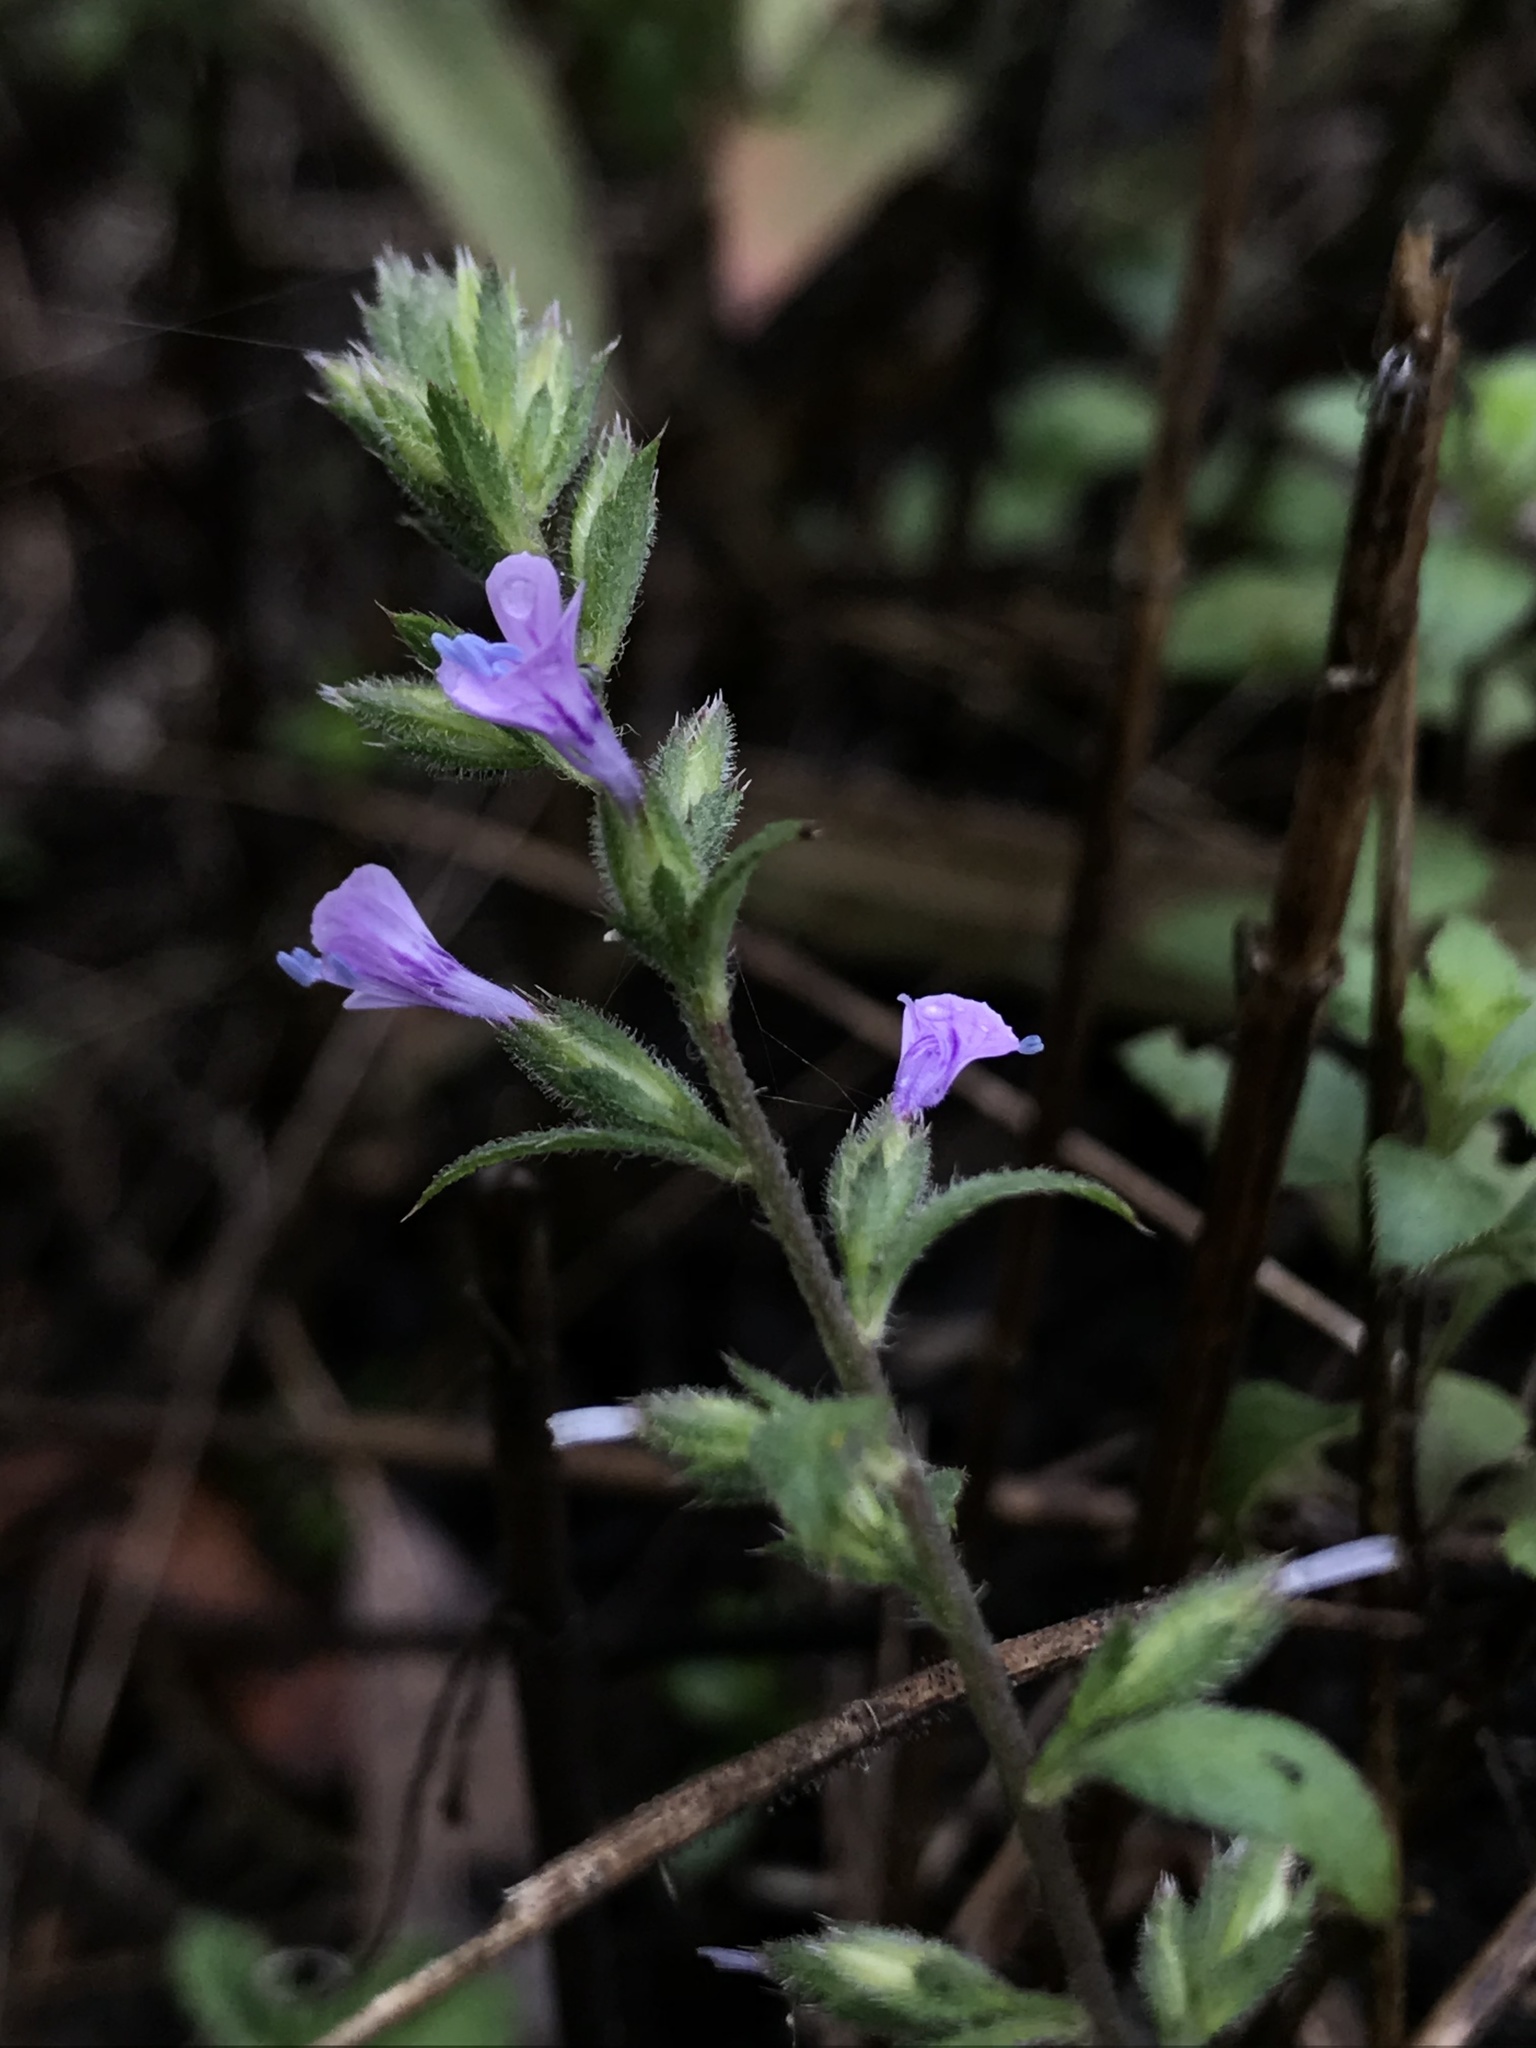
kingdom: Plantae
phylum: Tracheophyta
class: Magnoliopsida
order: Ericales
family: Polemoniaceae
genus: Loeselia
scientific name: Loeselia glandulosa
